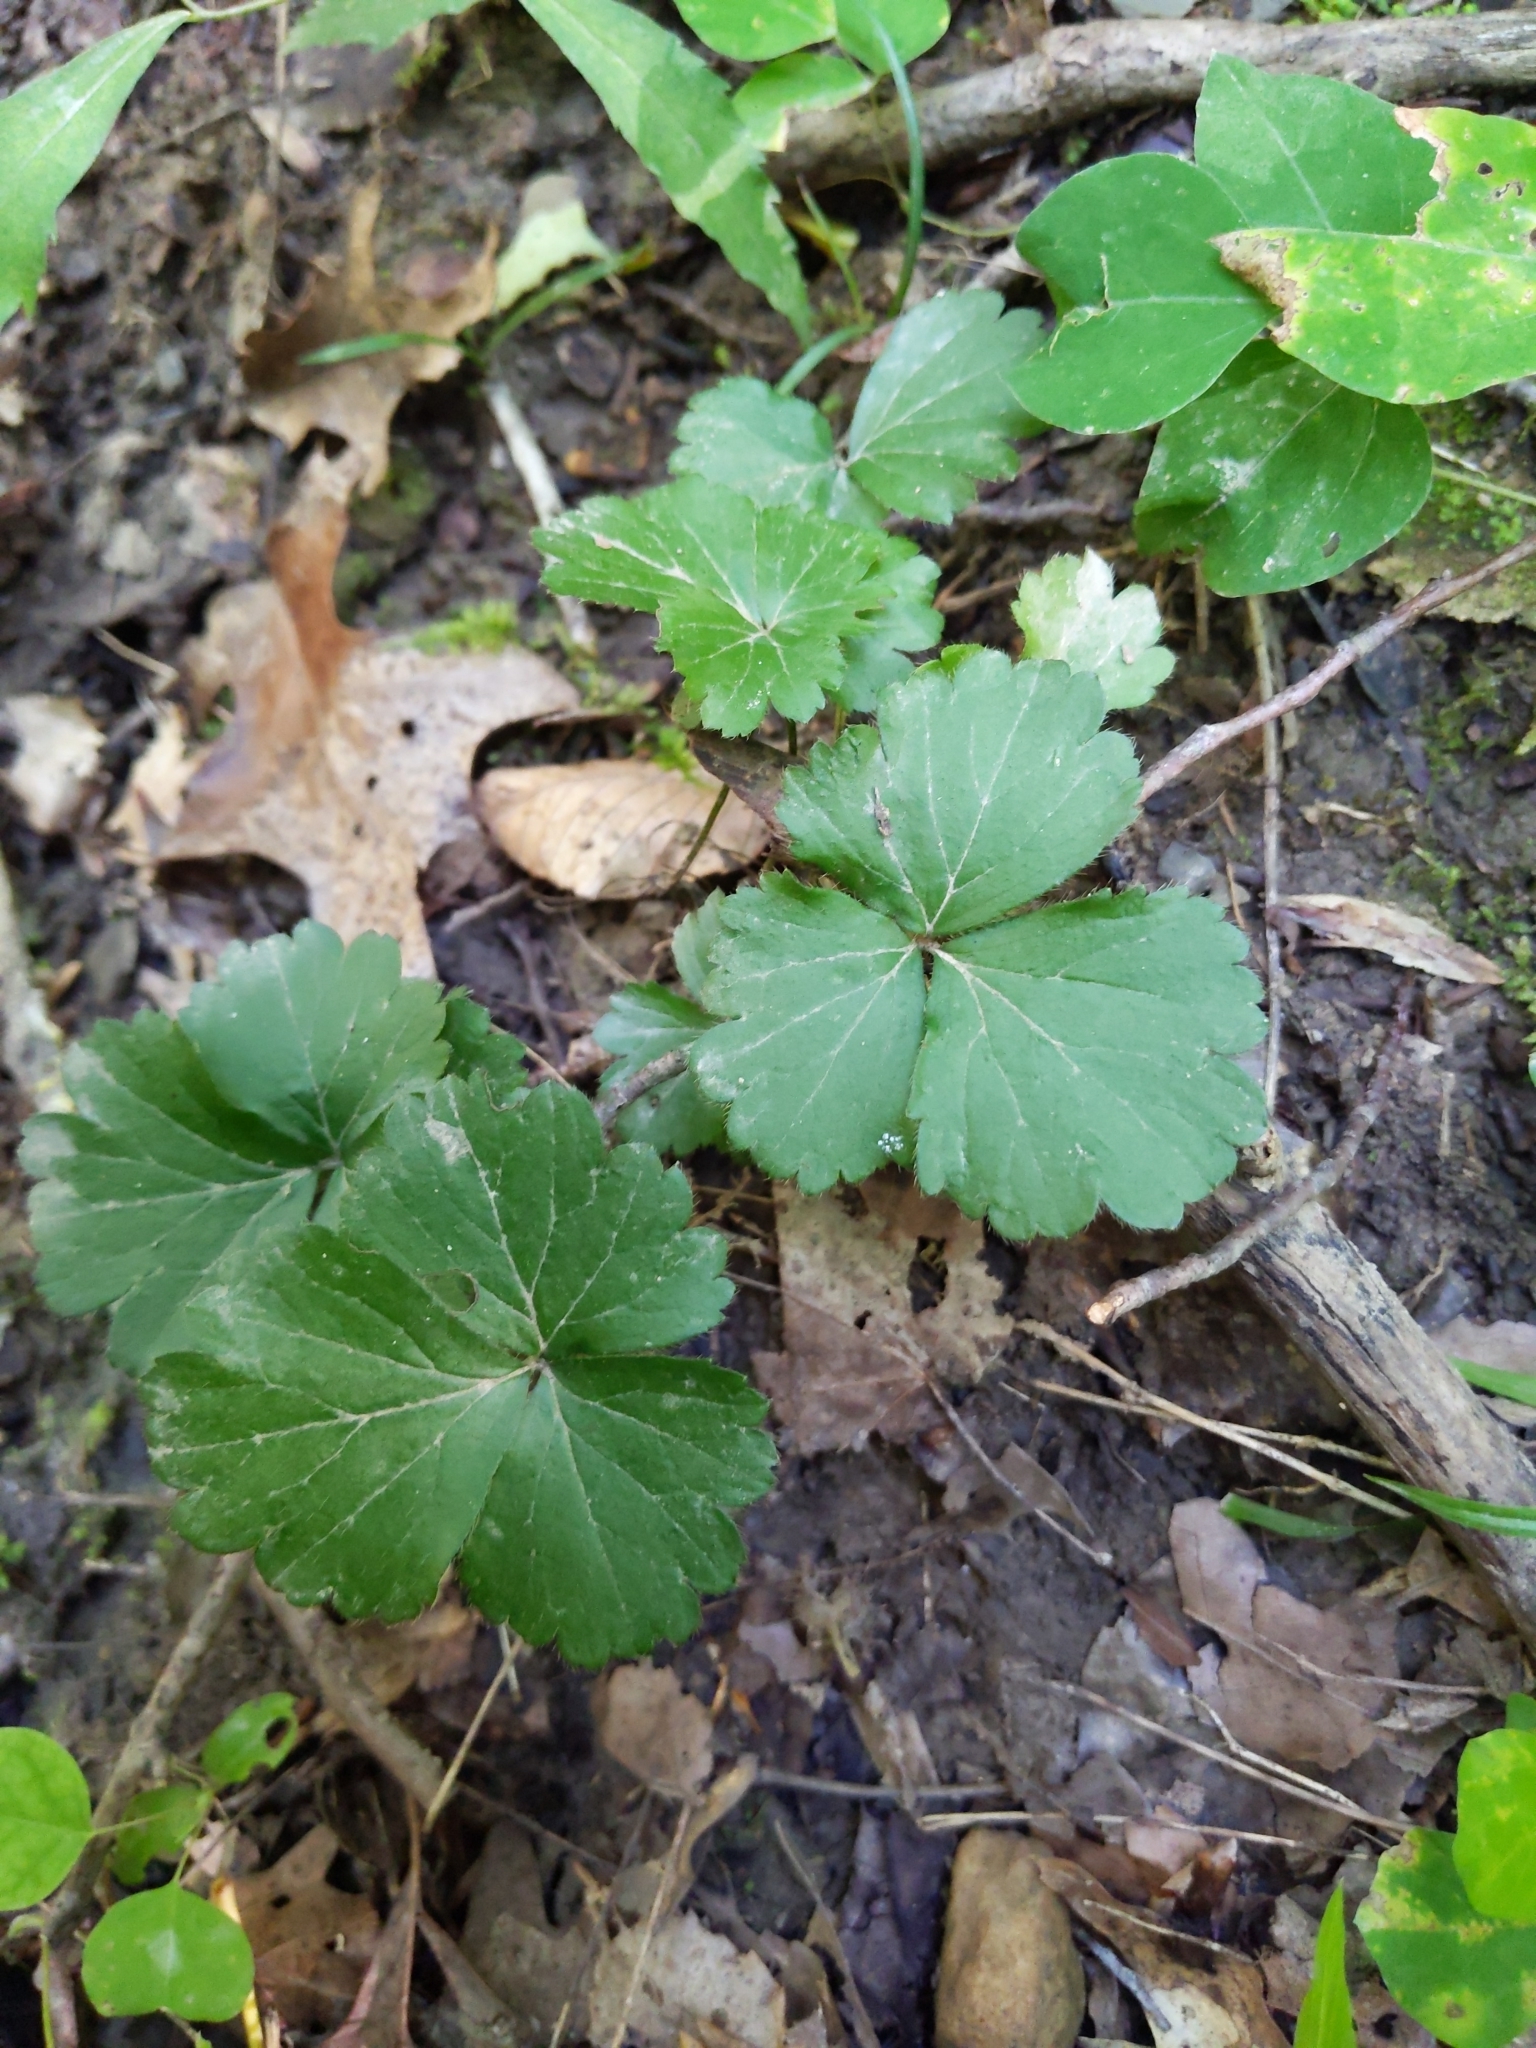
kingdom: Plantae
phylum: Tracheophyta
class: Magnoliopsida
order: Rosales
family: Rosaceae
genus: Geum
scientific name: Geum fragarioides
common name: Appalachian barren strawberry
